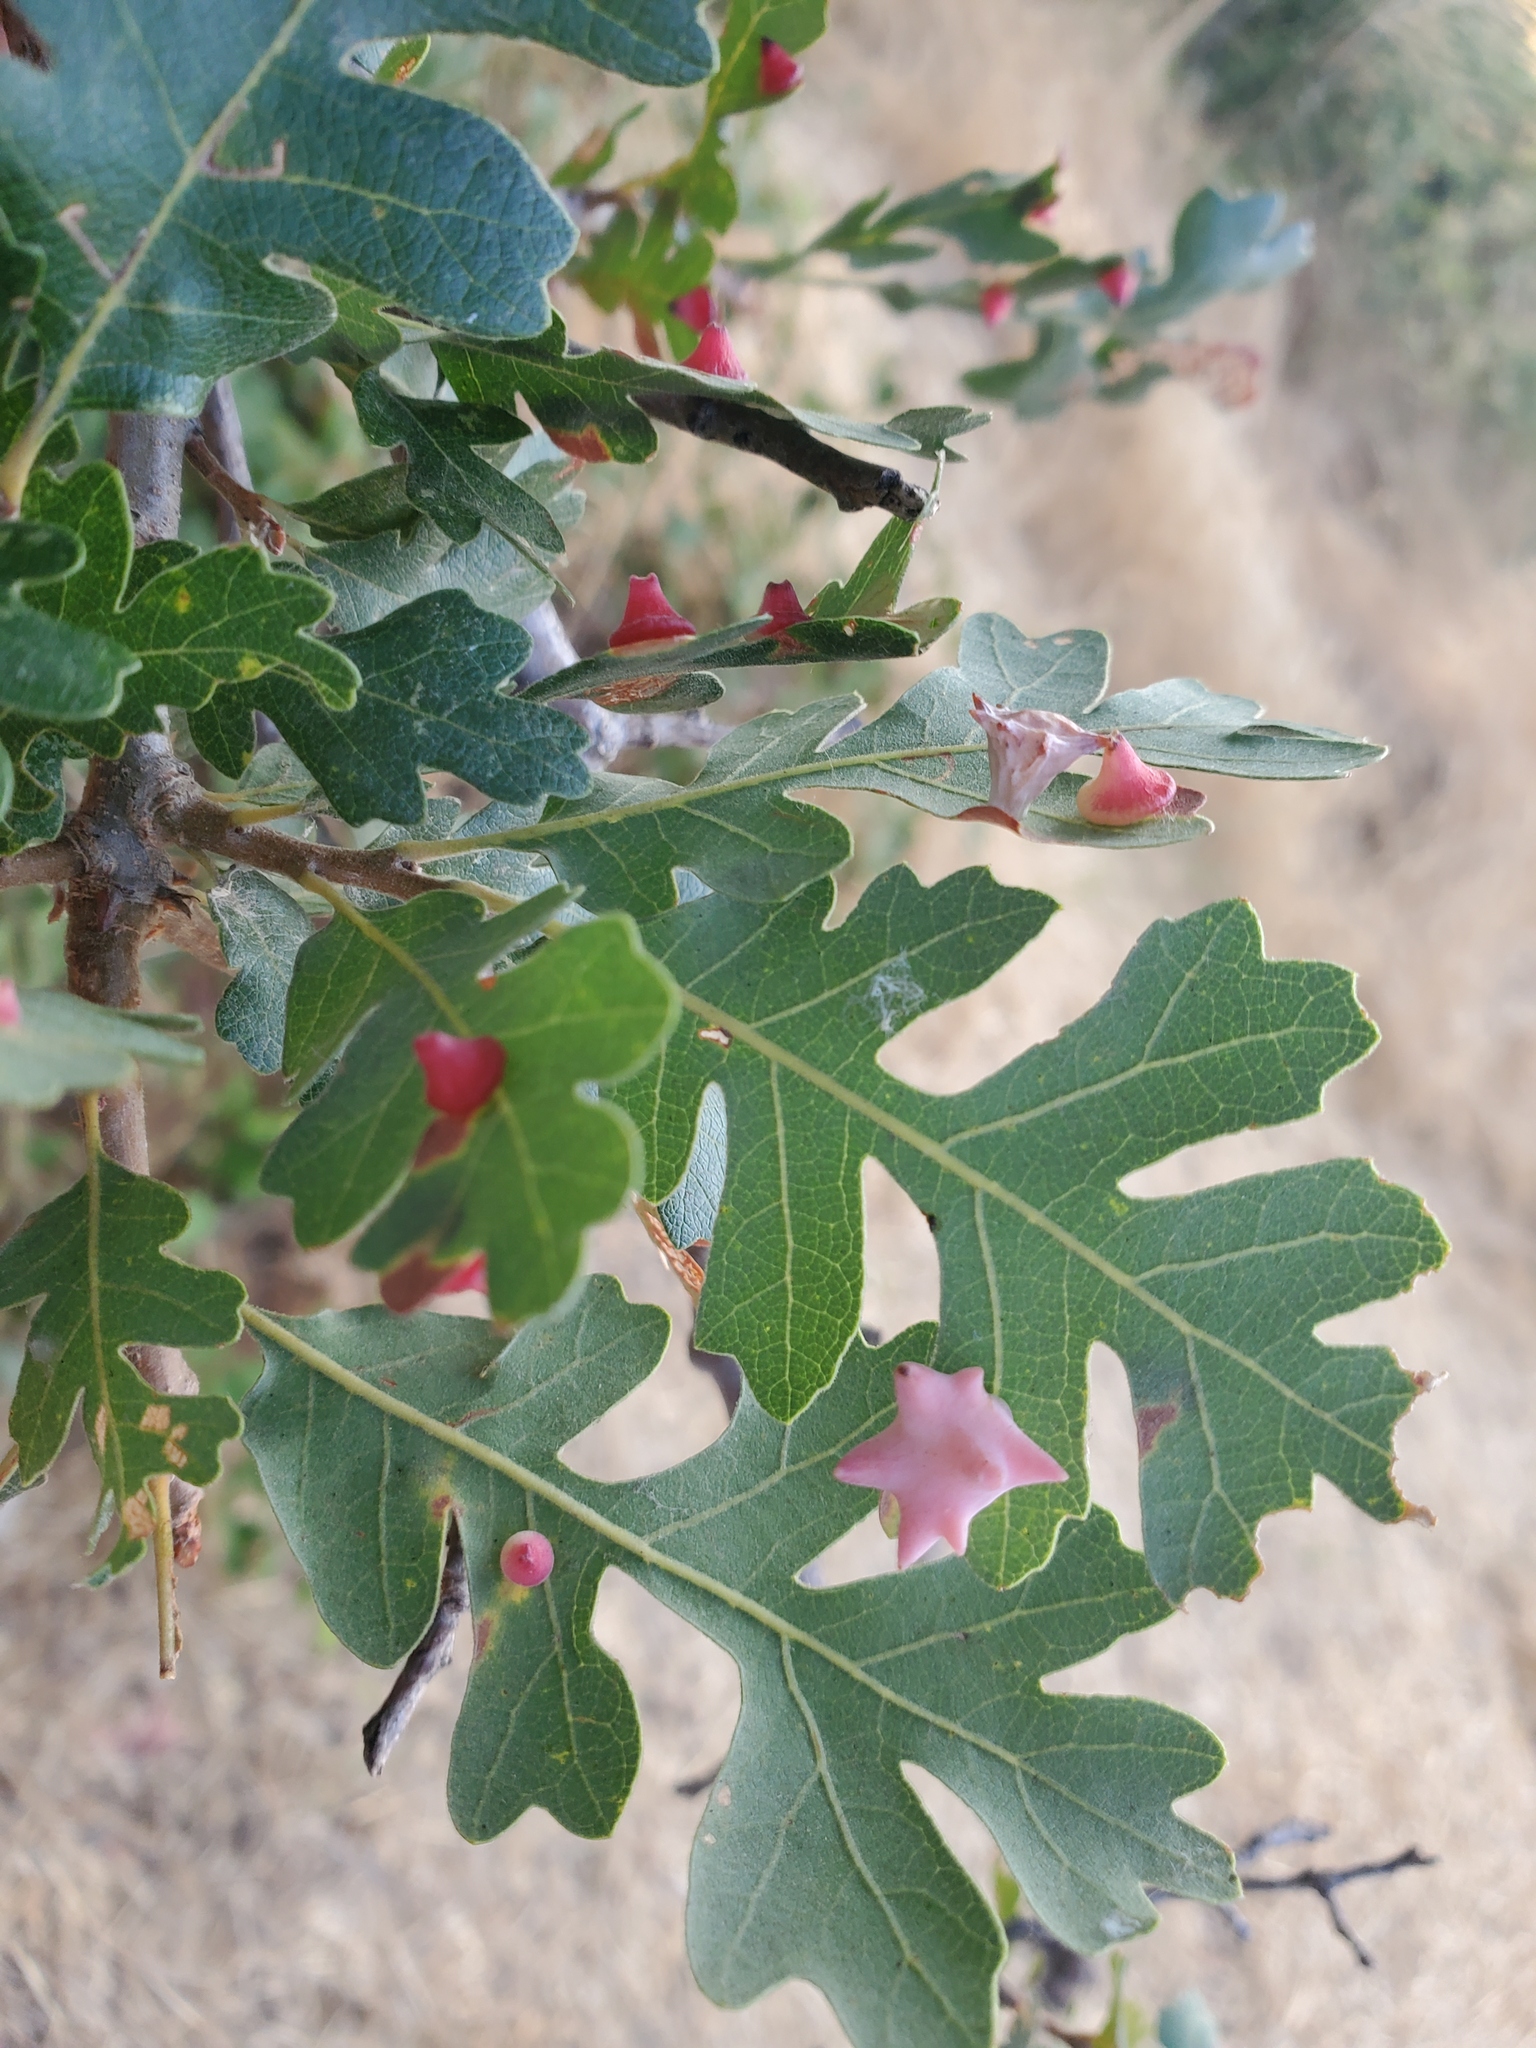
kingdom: Plantae
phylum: Tracheophyta
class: Magnoliopsida
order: Fagales
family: Fagaceae
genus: Quercus
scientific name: Quercus lobata
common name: Valley oak
